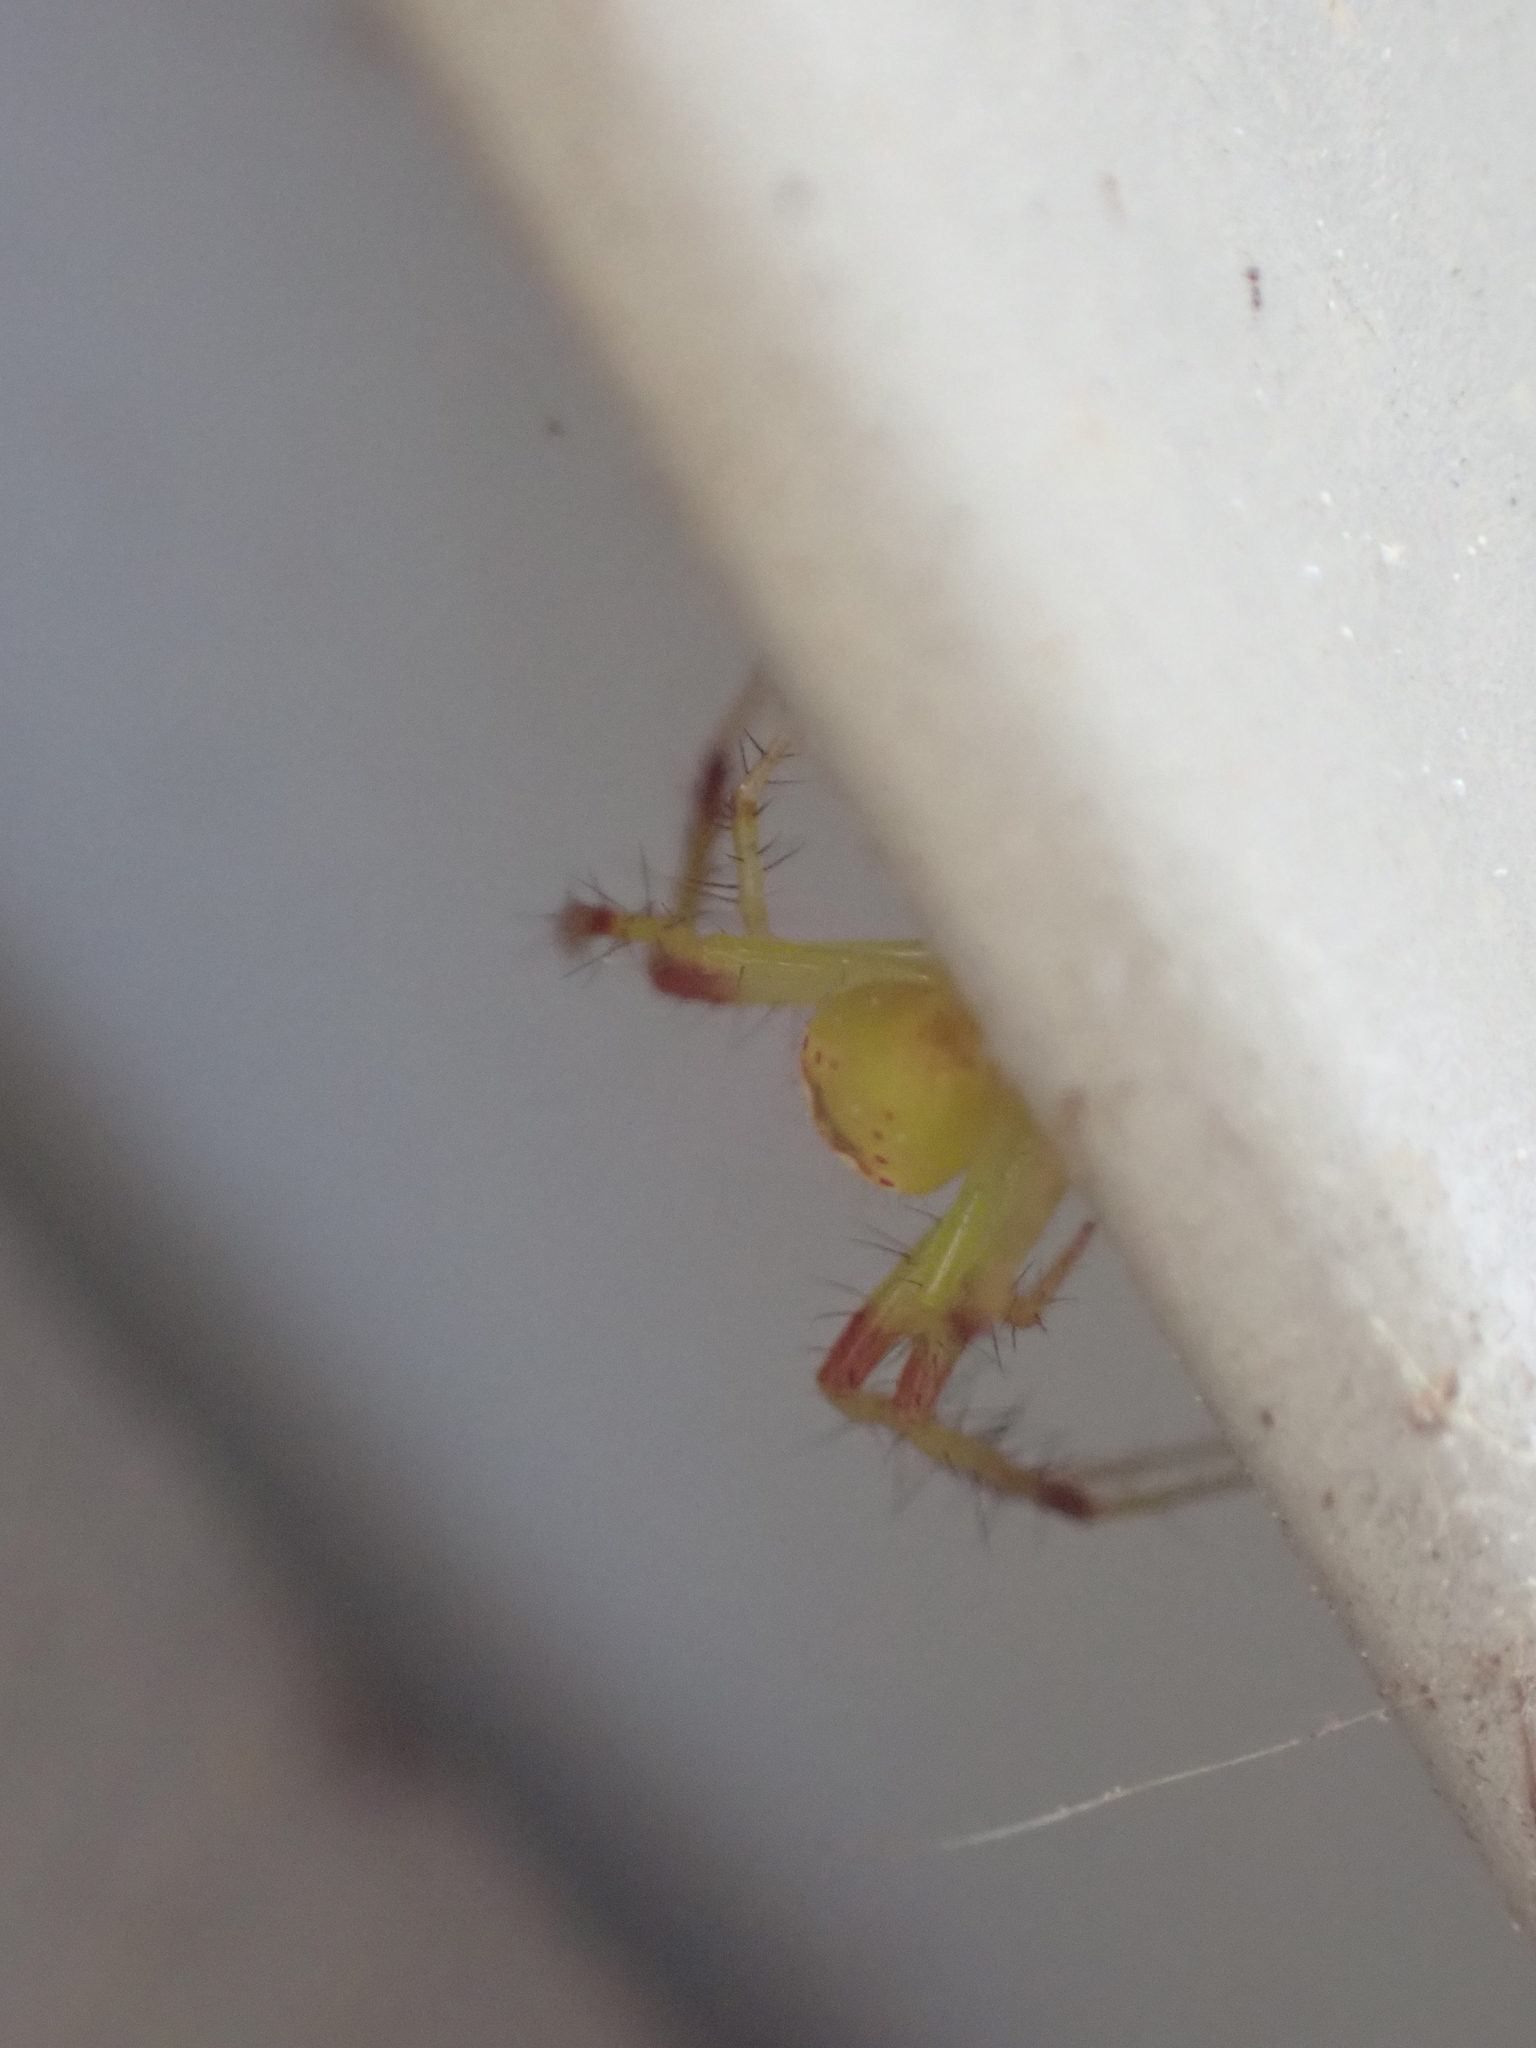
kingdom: Animalia
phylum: Arthropoda
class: Arachnida
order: Araneae
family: Araneidae
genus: Araneus
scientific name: Araneus bonsallae
